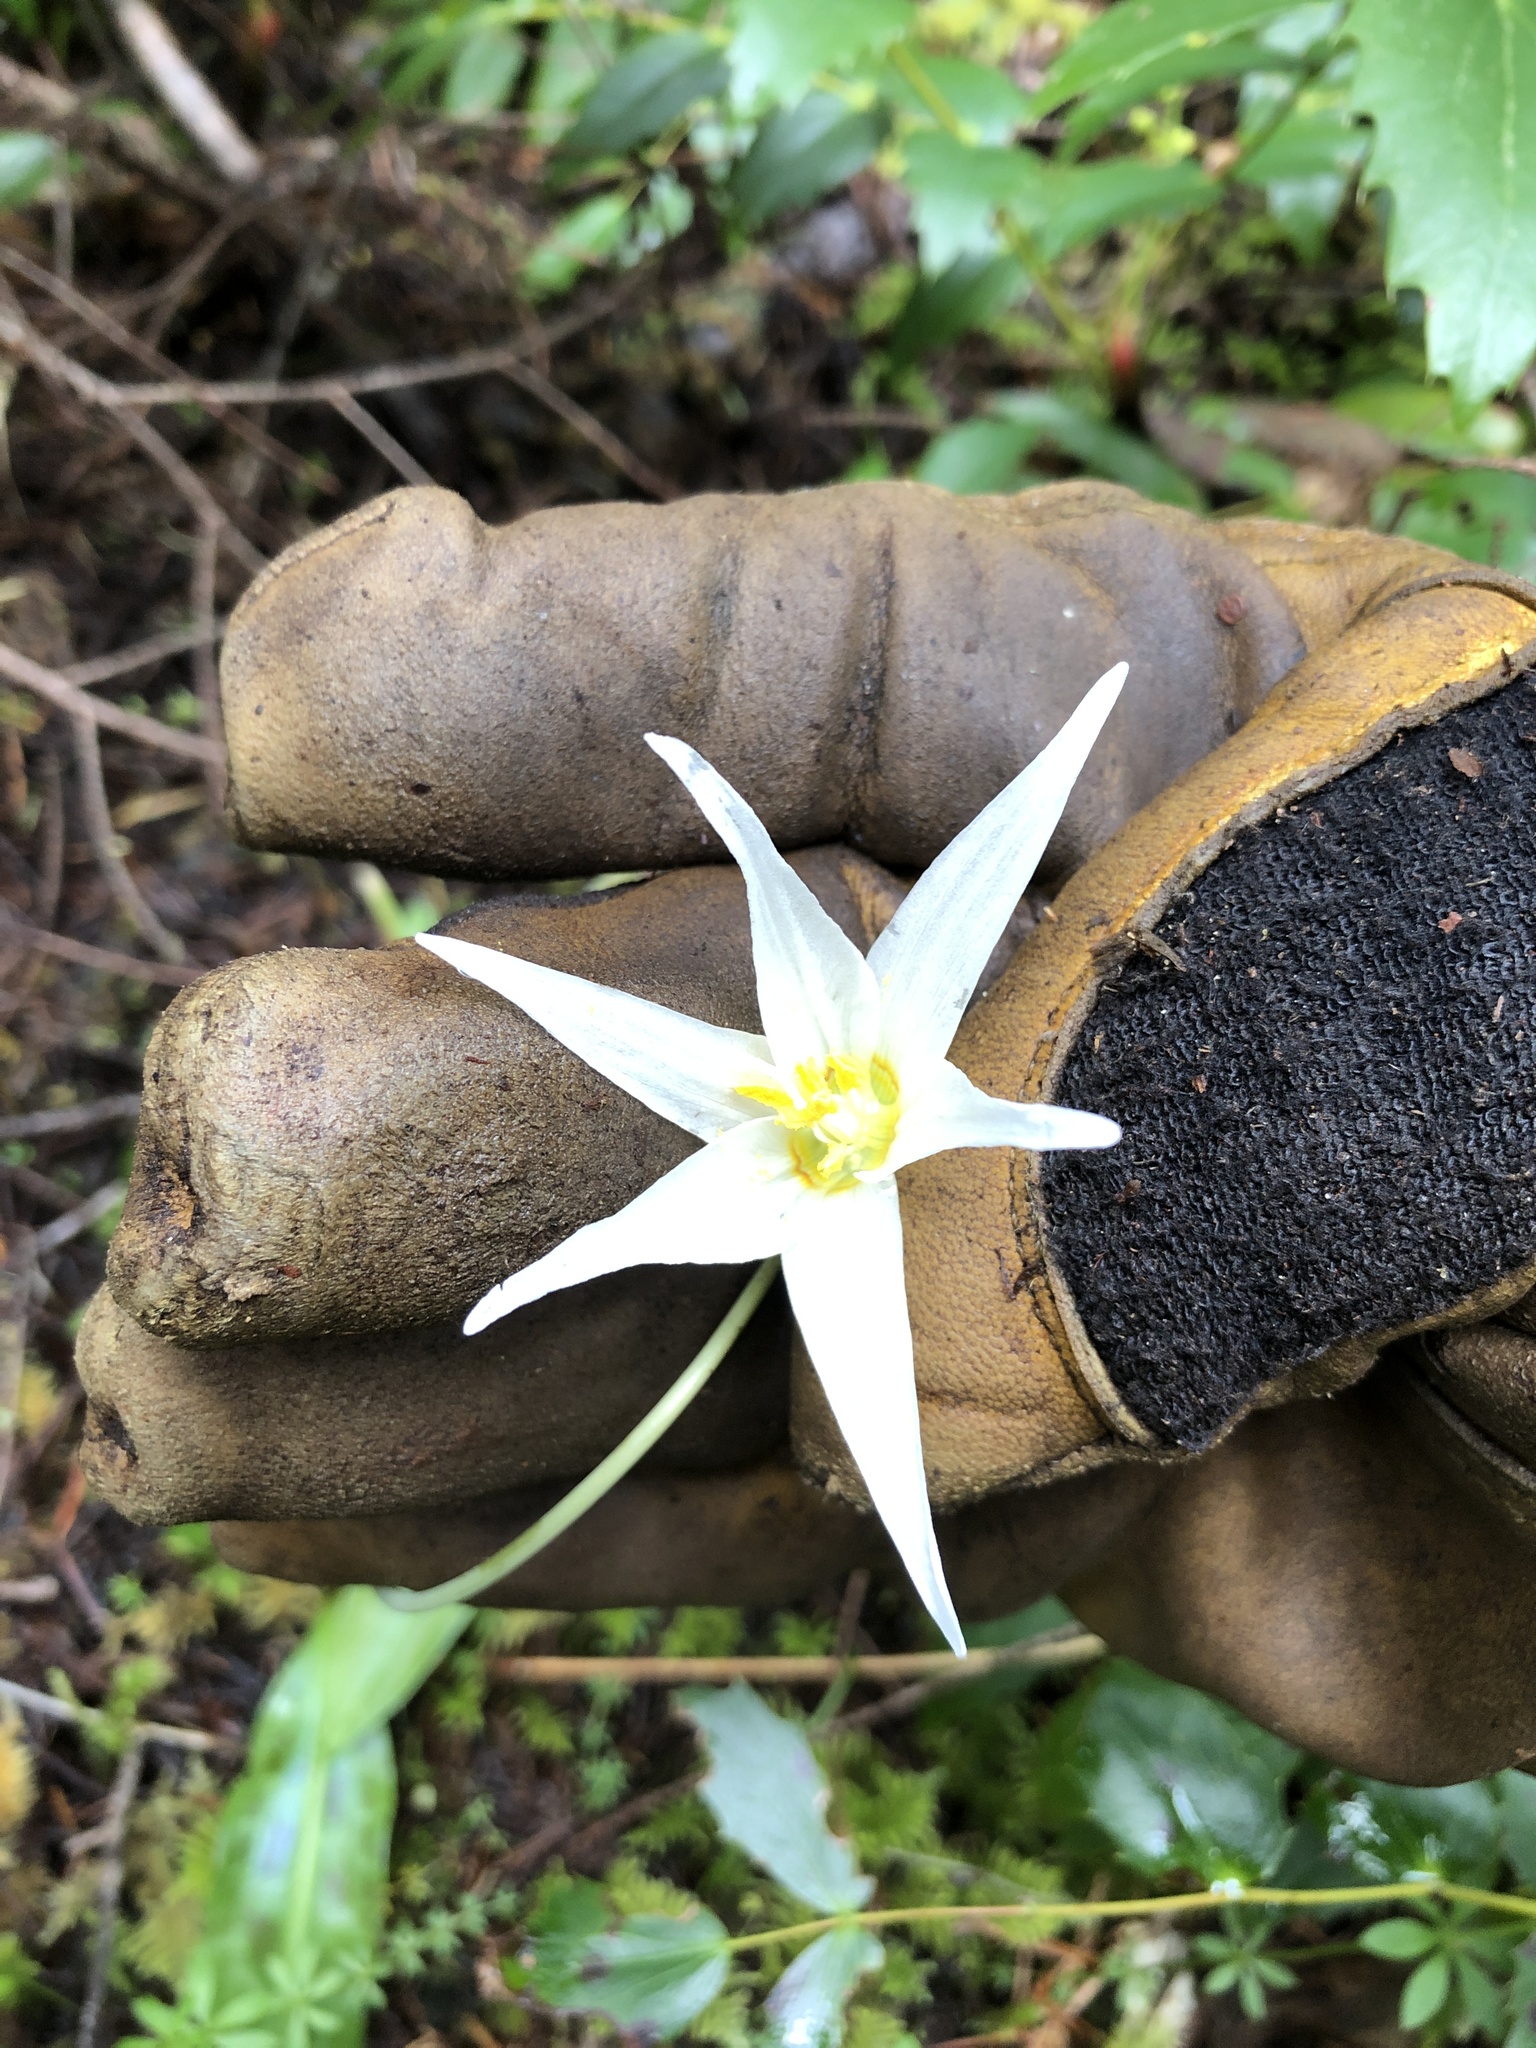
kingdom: Plantae
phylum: Tracheophyta
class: Liliopsida
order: Liliales
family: Liliaceae
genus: Erythronium
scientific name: Erythronium oregonum
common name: Giant adder's-tongue
